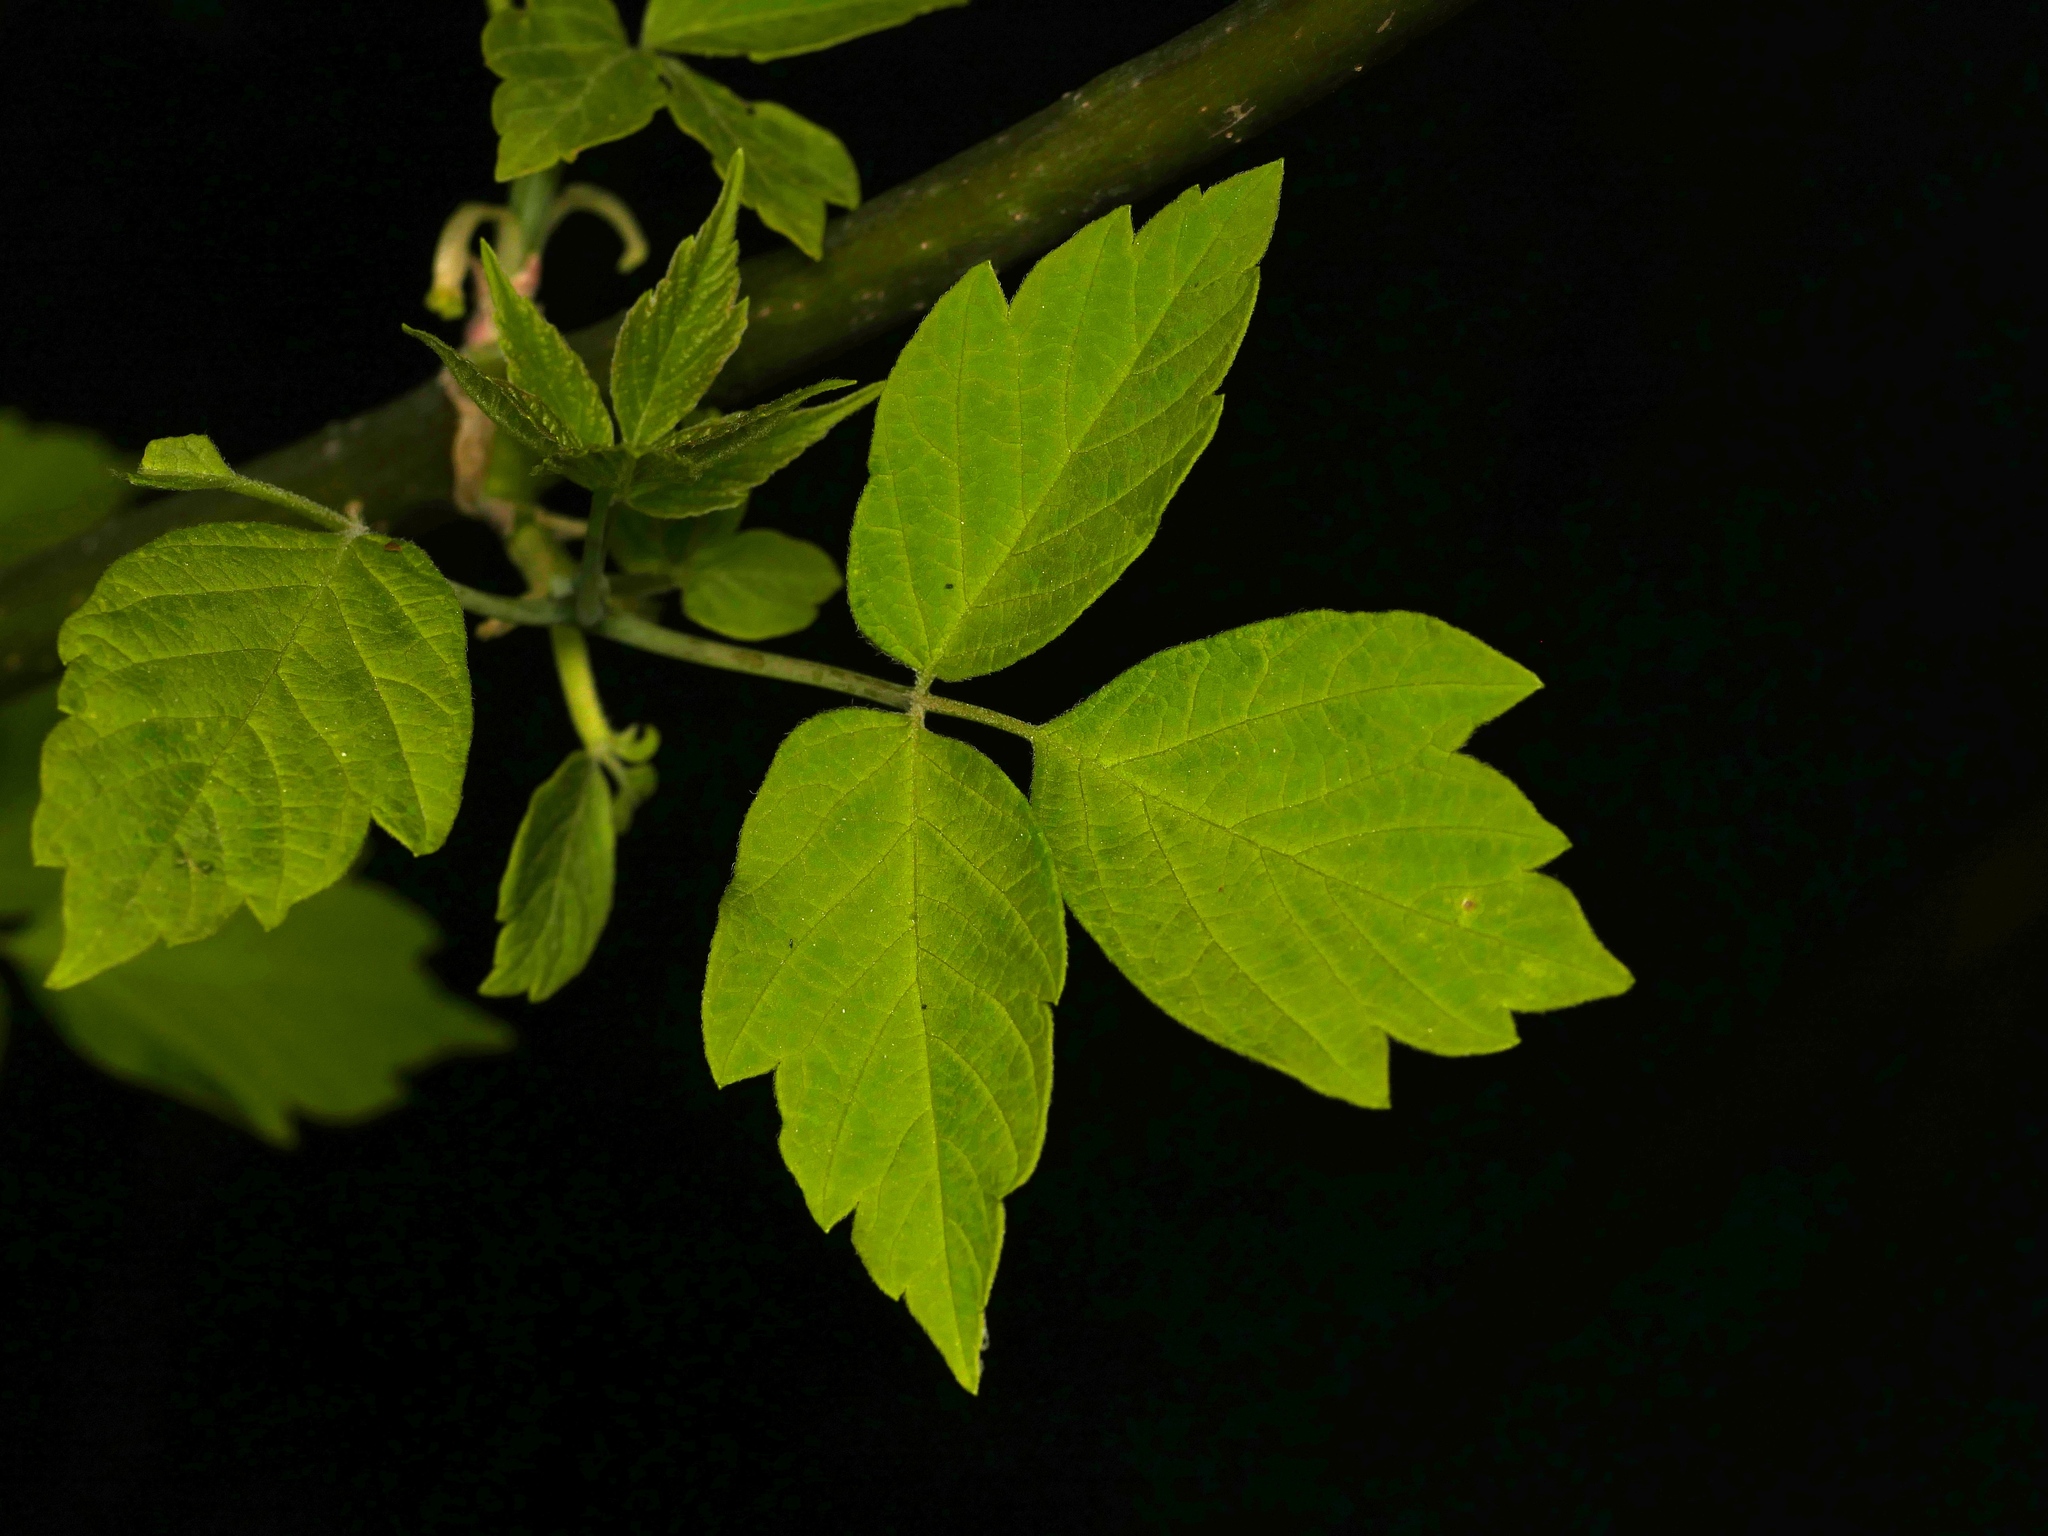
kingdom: Plantae
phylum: Tracheophyta
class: Magnoliopsida
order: Sapindales
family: Sapindaceae
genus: Acer
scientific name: Acer negundo
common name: Ashleaf maple
